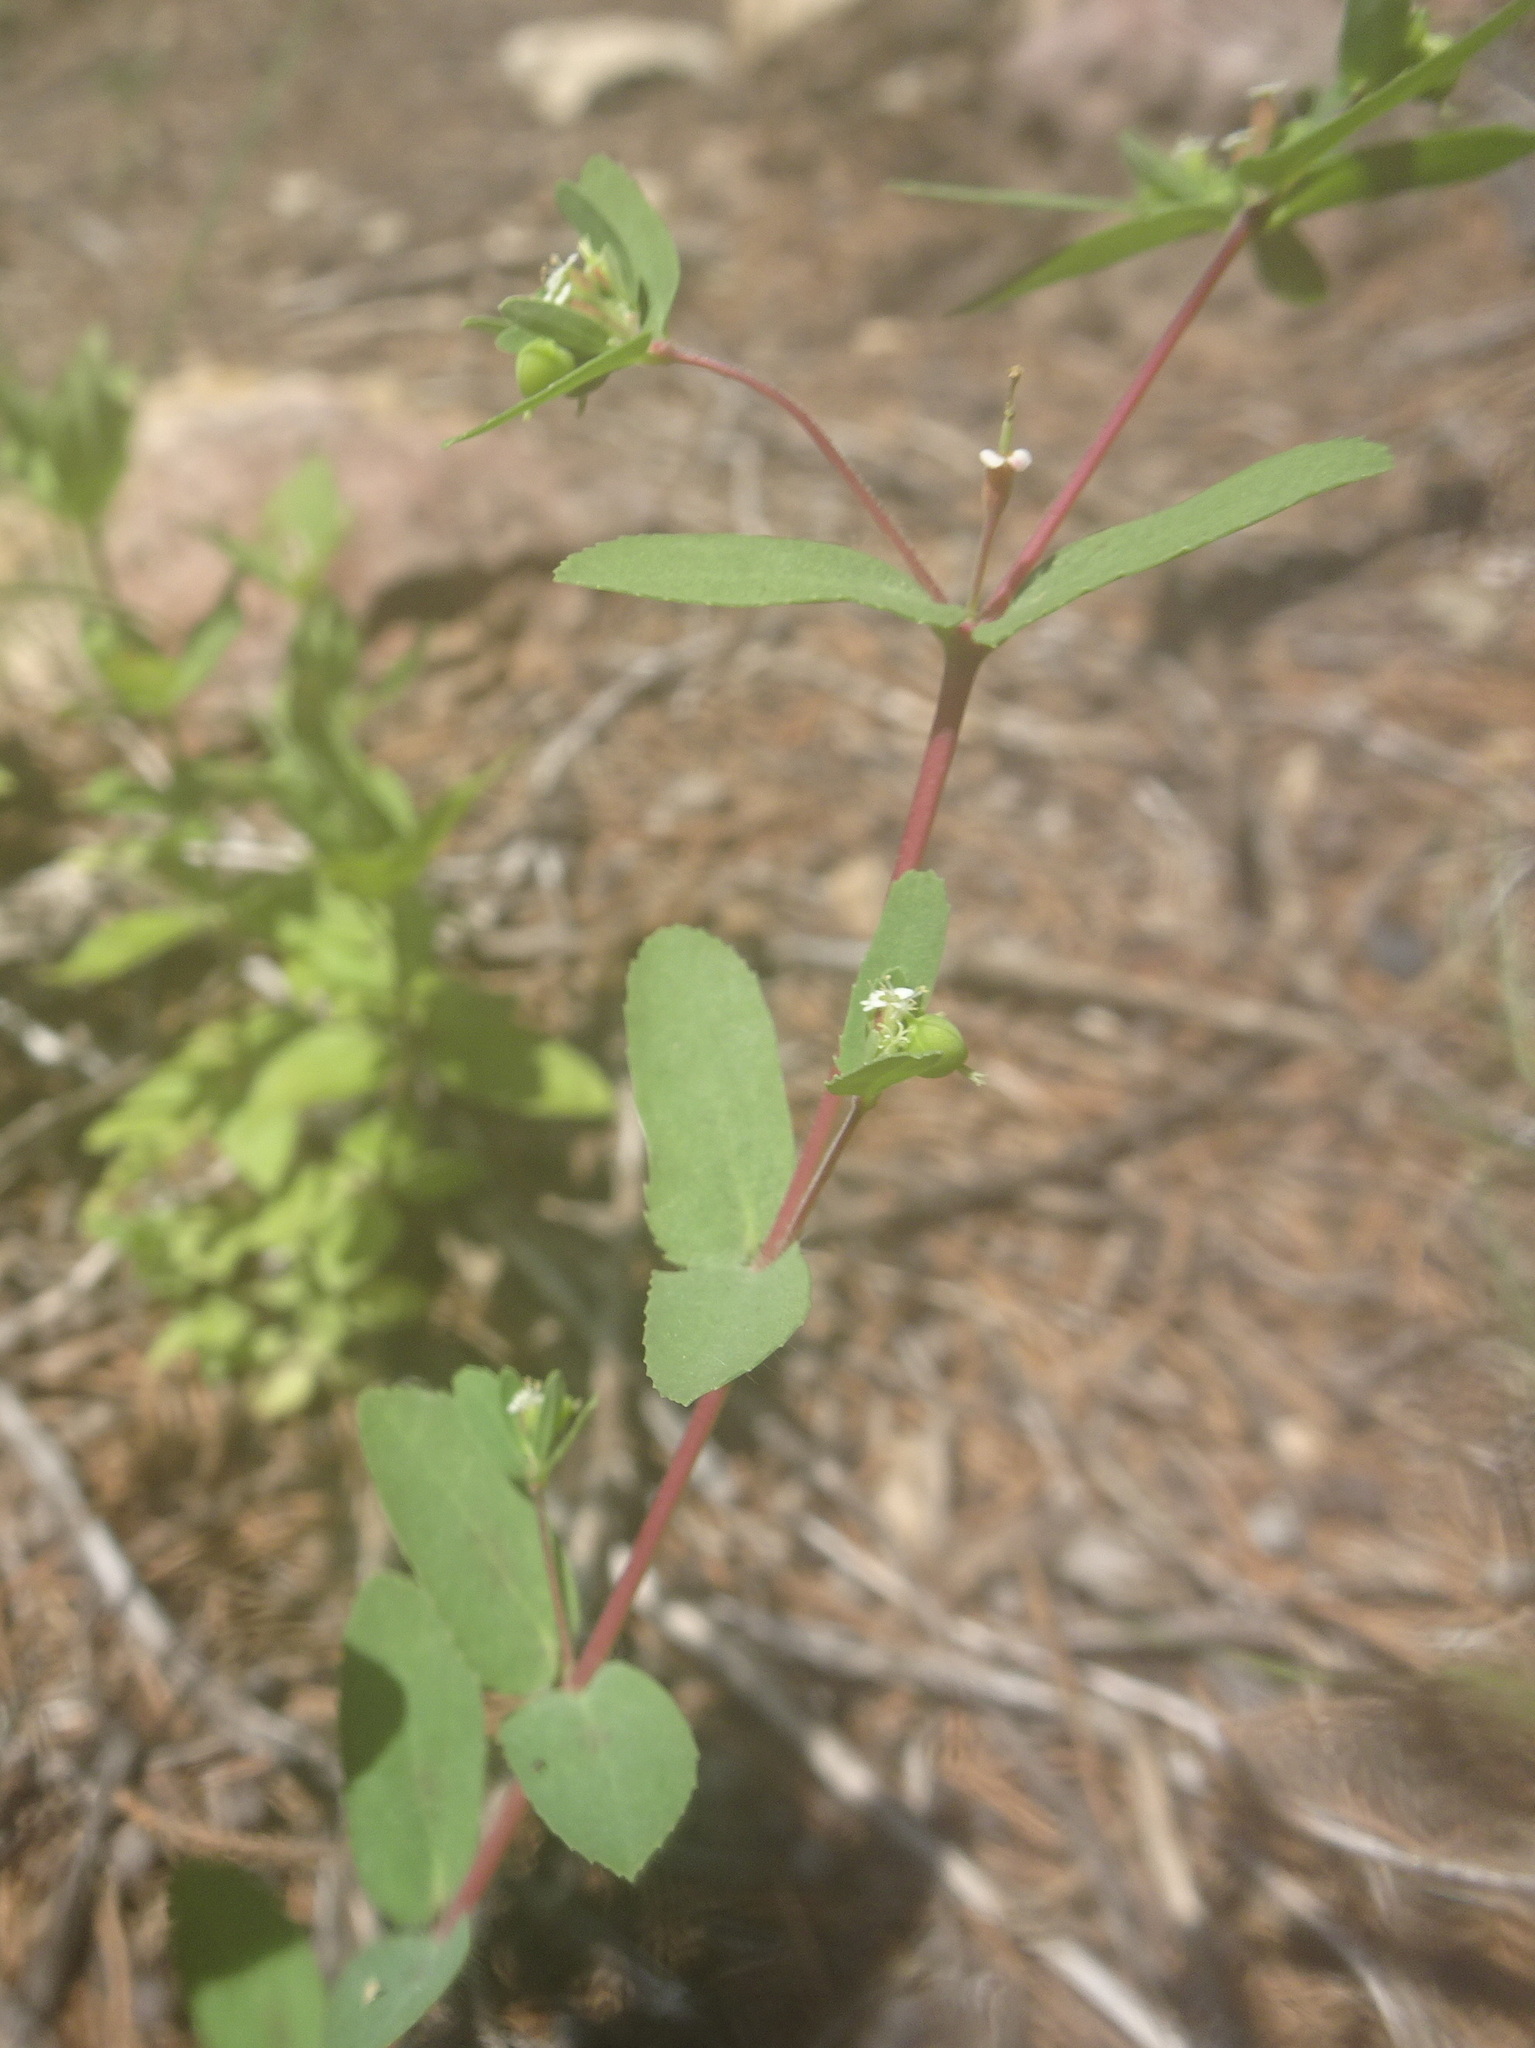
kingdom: Plantae
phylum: Tracheophyta
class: Magnoliopsida
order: Malpighiales
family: Euphorbiaceae
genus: Euphorbia
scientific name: Euphorbia nutans
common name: Eyebane
